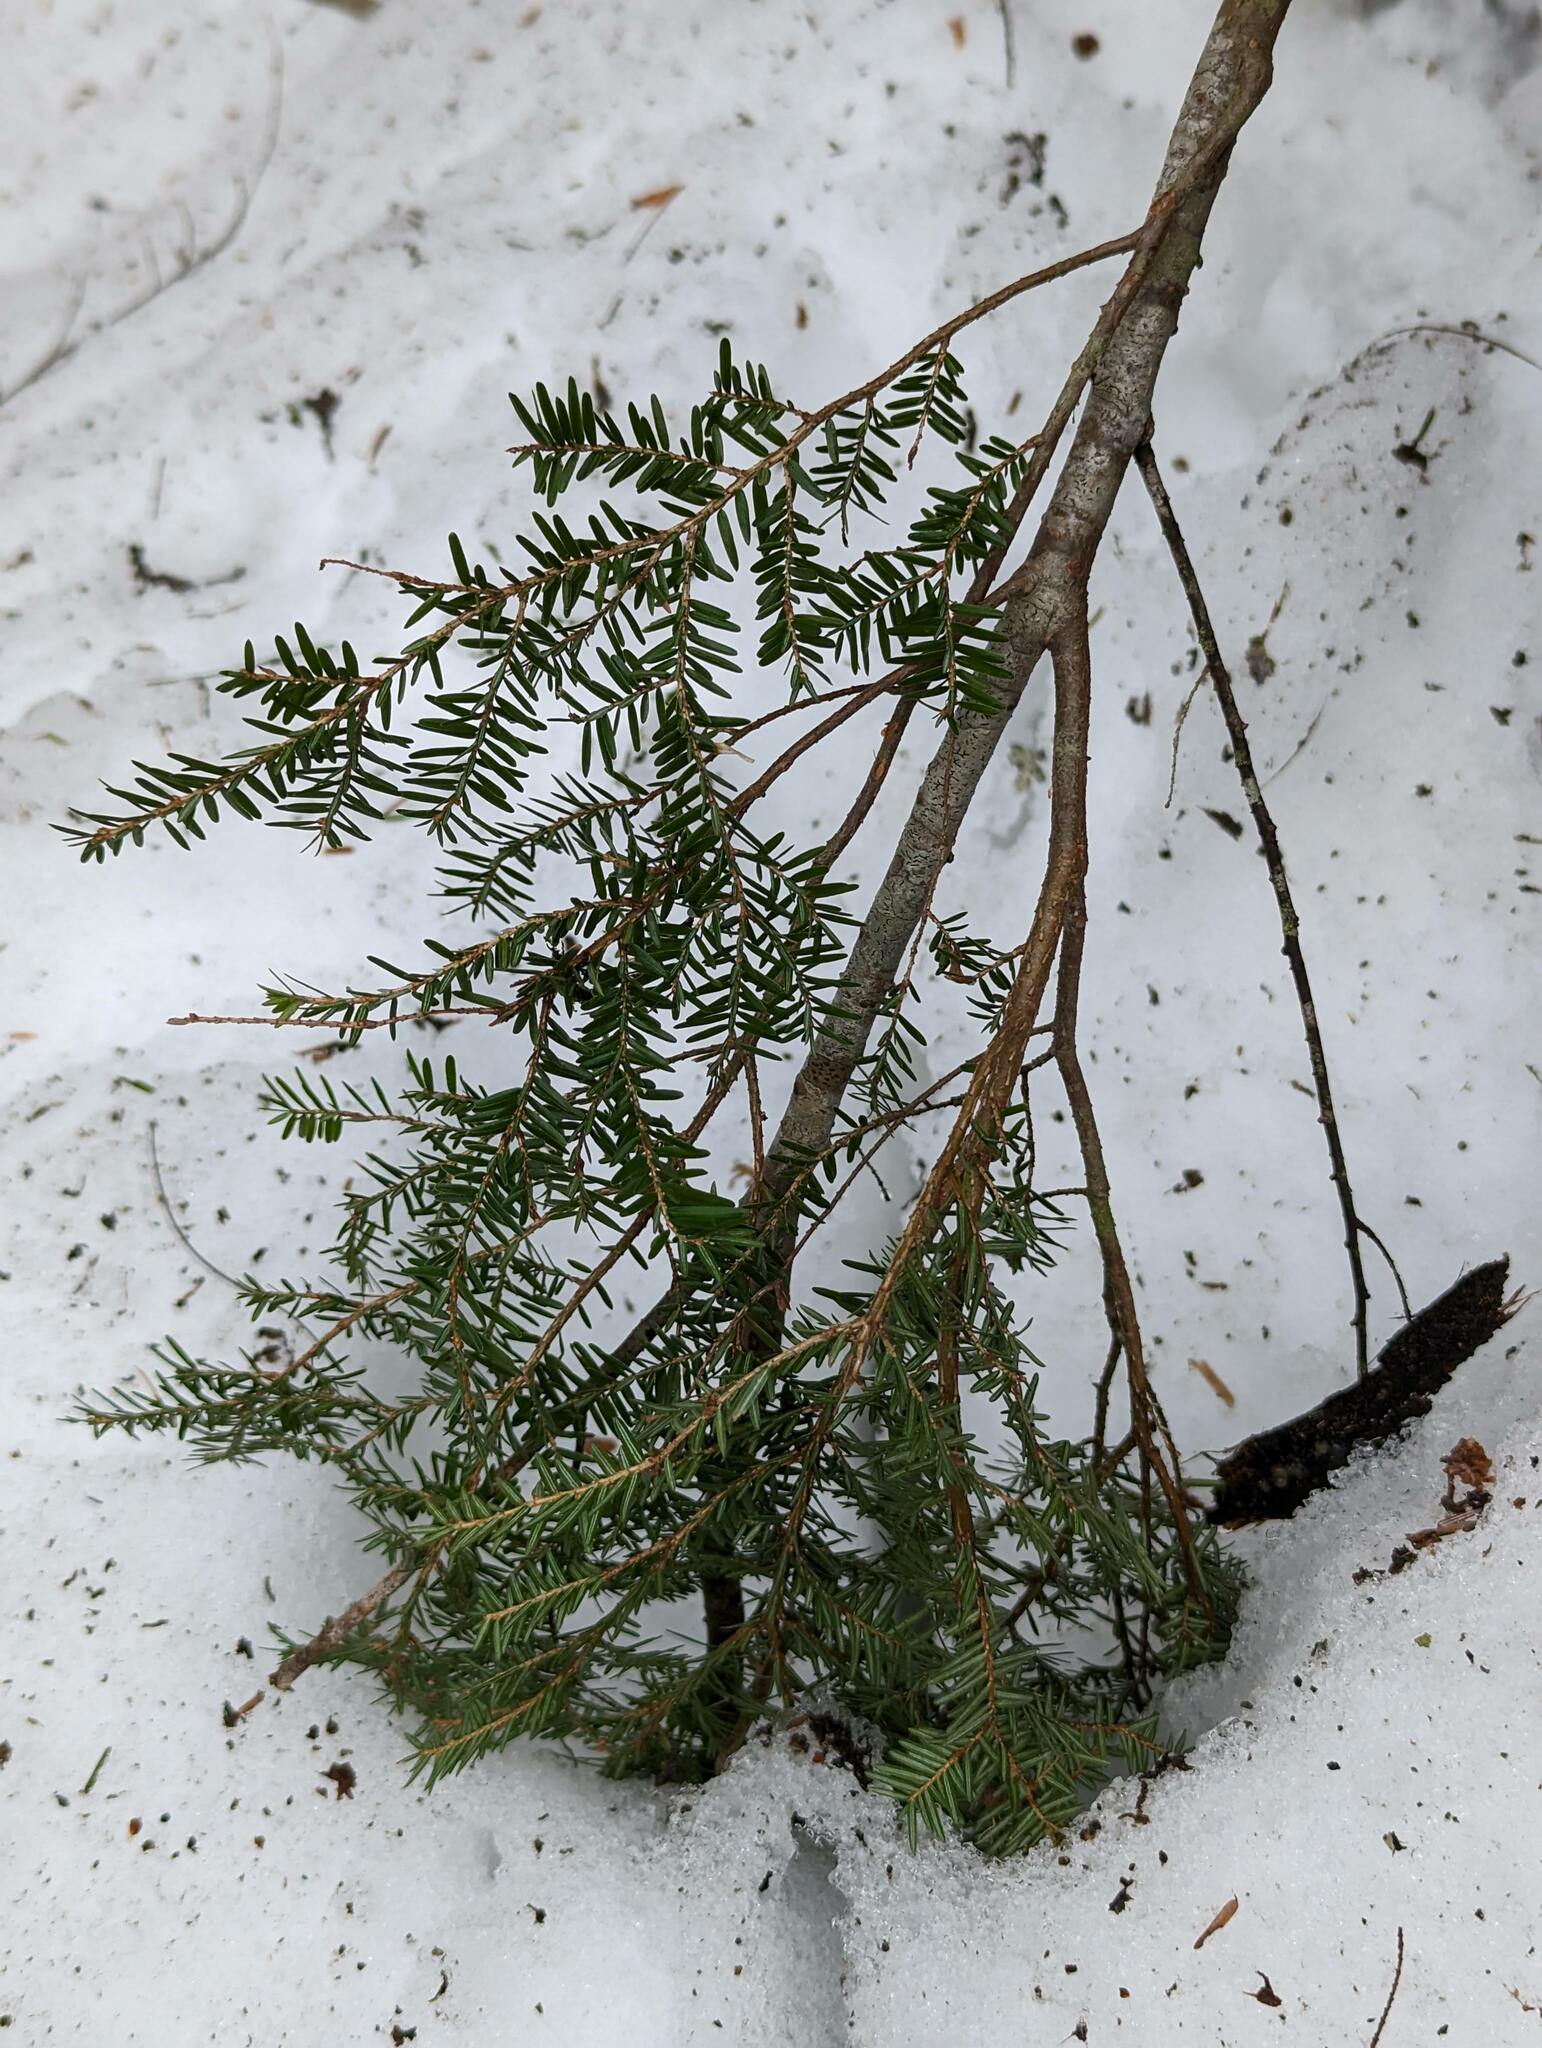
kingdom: Plantae
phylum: Tracheophyta
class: Pinopsida
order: Pinales
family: Pinaceae
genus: Tsuga
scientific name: Tsuga canadensis
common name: Eastern hemlock
